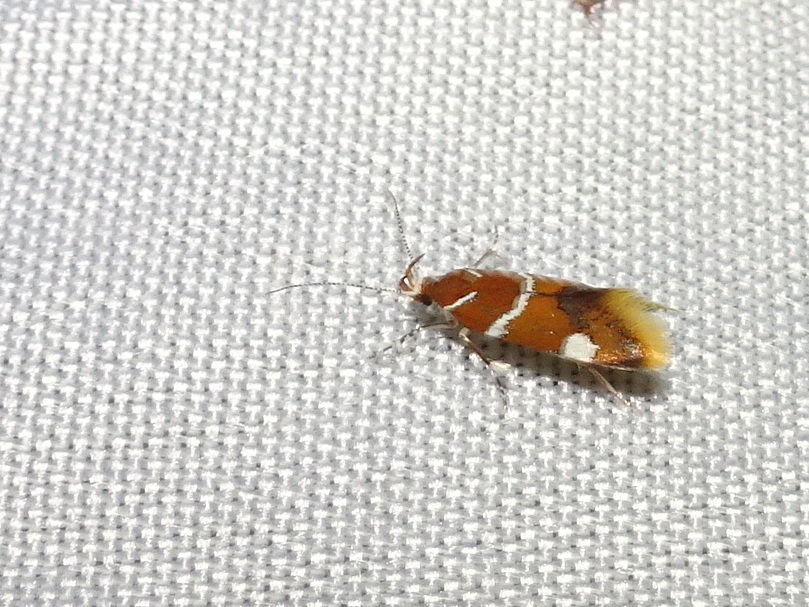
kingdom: Animalia
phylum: Arthropoda
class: Insecta
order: Lepidoptera
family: Oecophoridae
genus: Promalactis
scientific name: Promalactis suzukiella
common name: Moth
